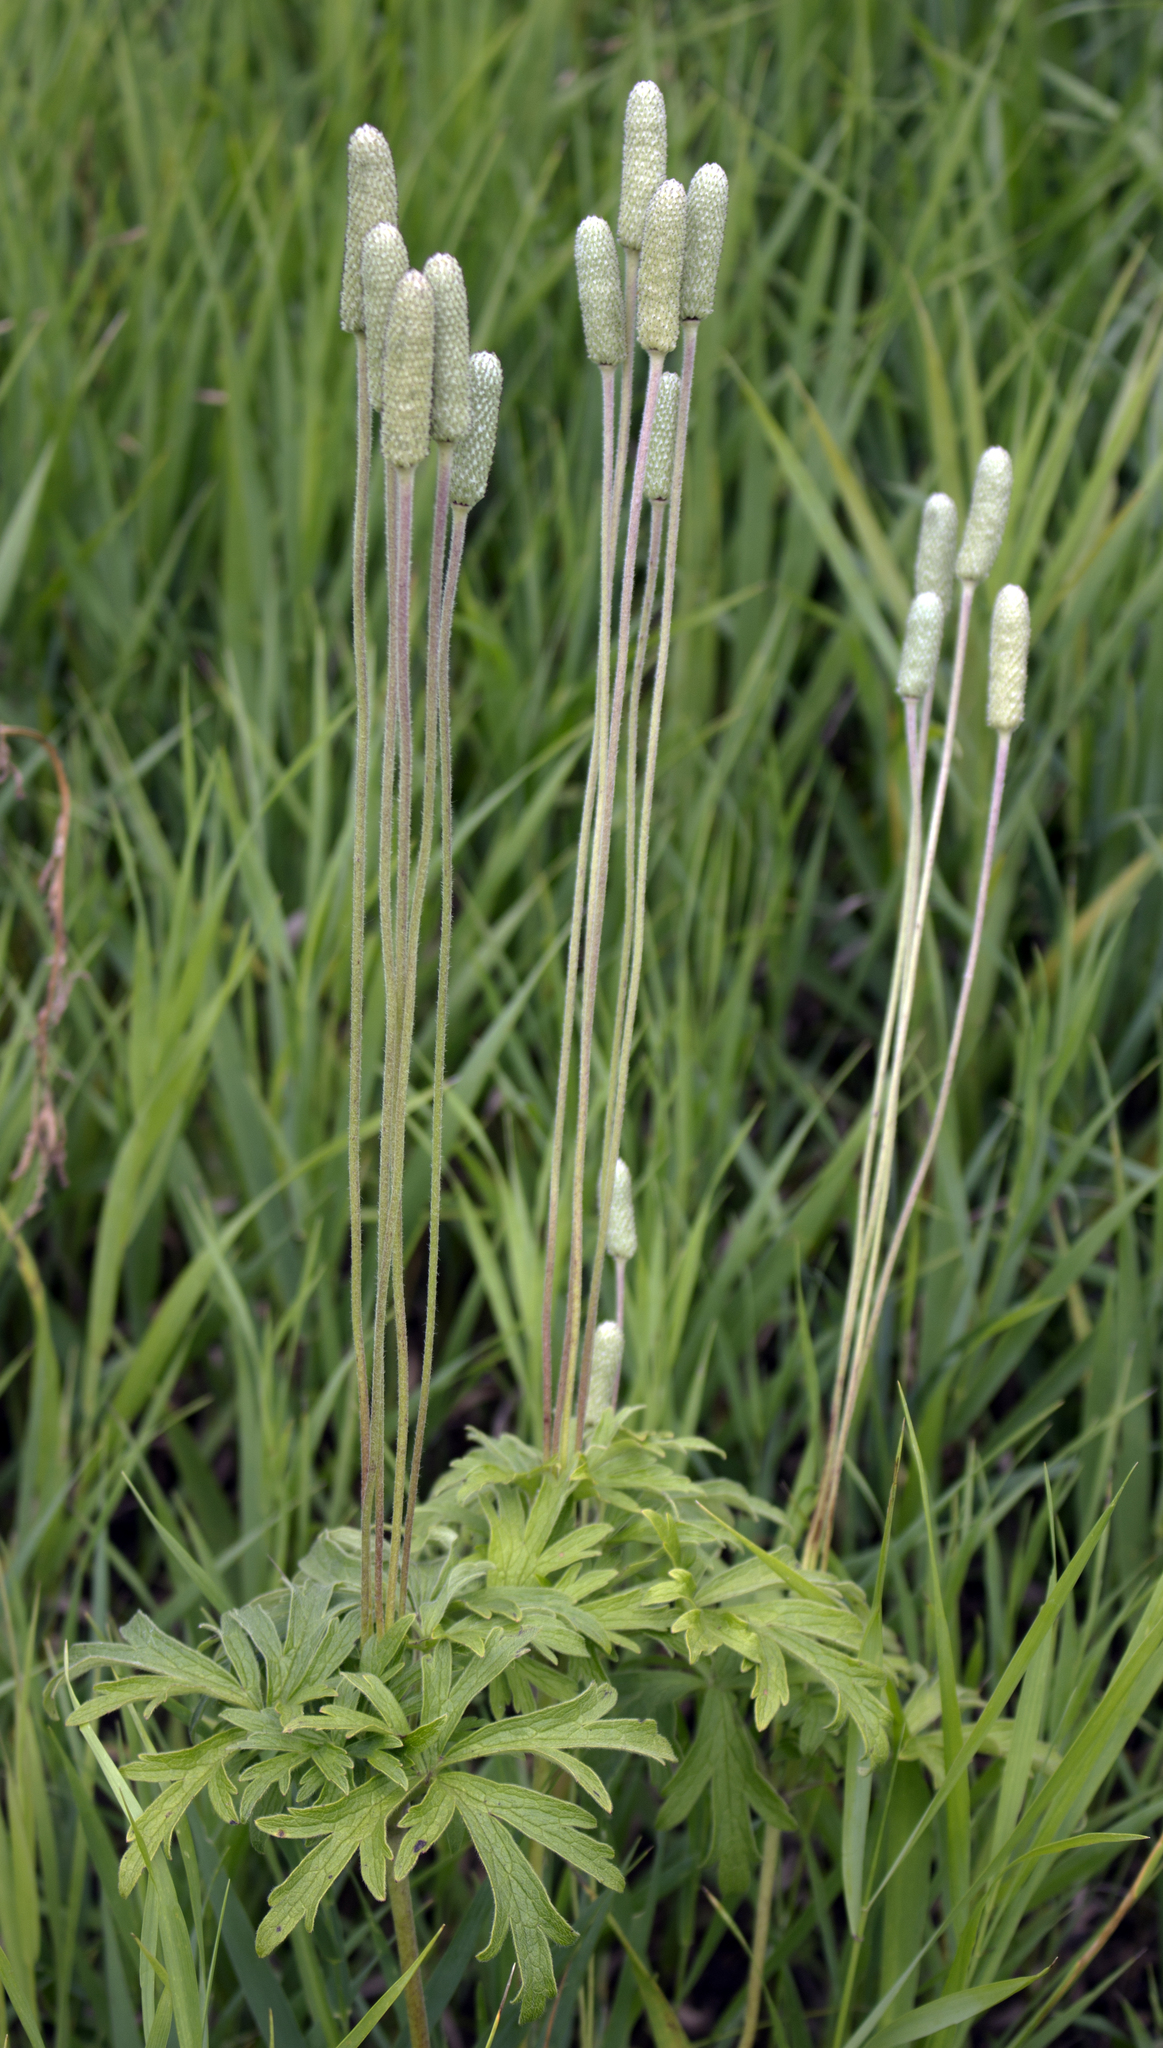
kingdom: Plantae
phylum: Tracheophyta
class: Magnoliopsida
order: Ranunculales
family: Ranunculaceae
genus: Anemone
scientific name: Anemone cylindrica
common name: Candle anemone
